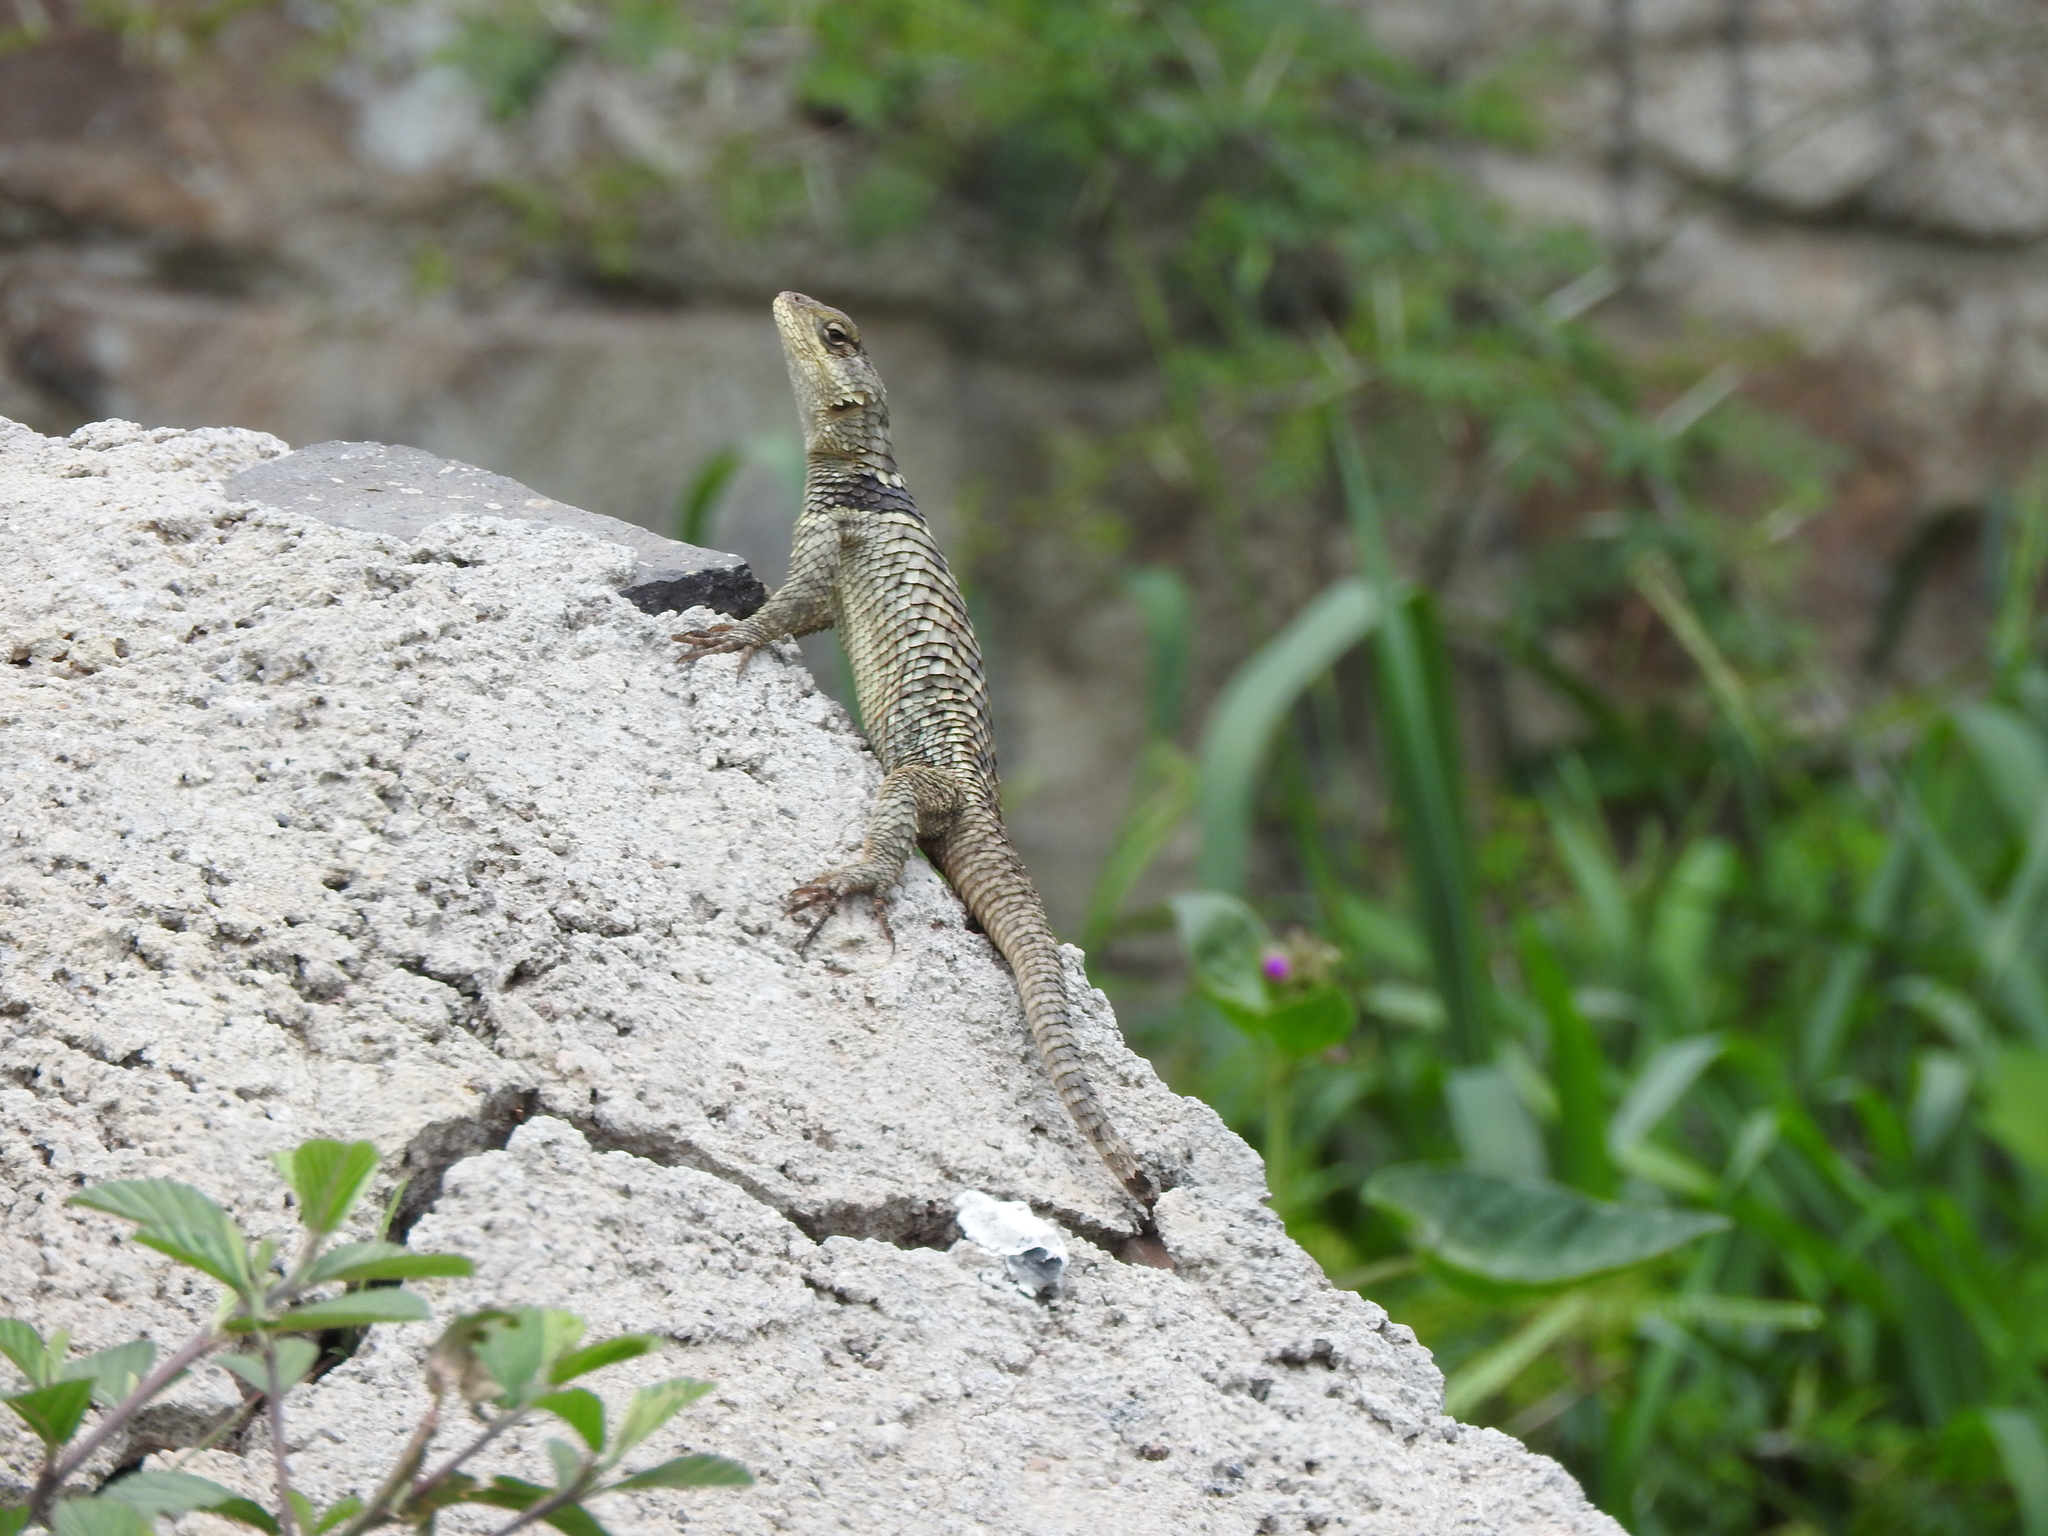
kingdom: Animalia
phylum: Chordata
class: Squamata
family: Phrynosomatidae
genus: Sceloporus
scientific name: Sceloporus torquatus
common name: Central plateau torquate lizard [melanogaster]
